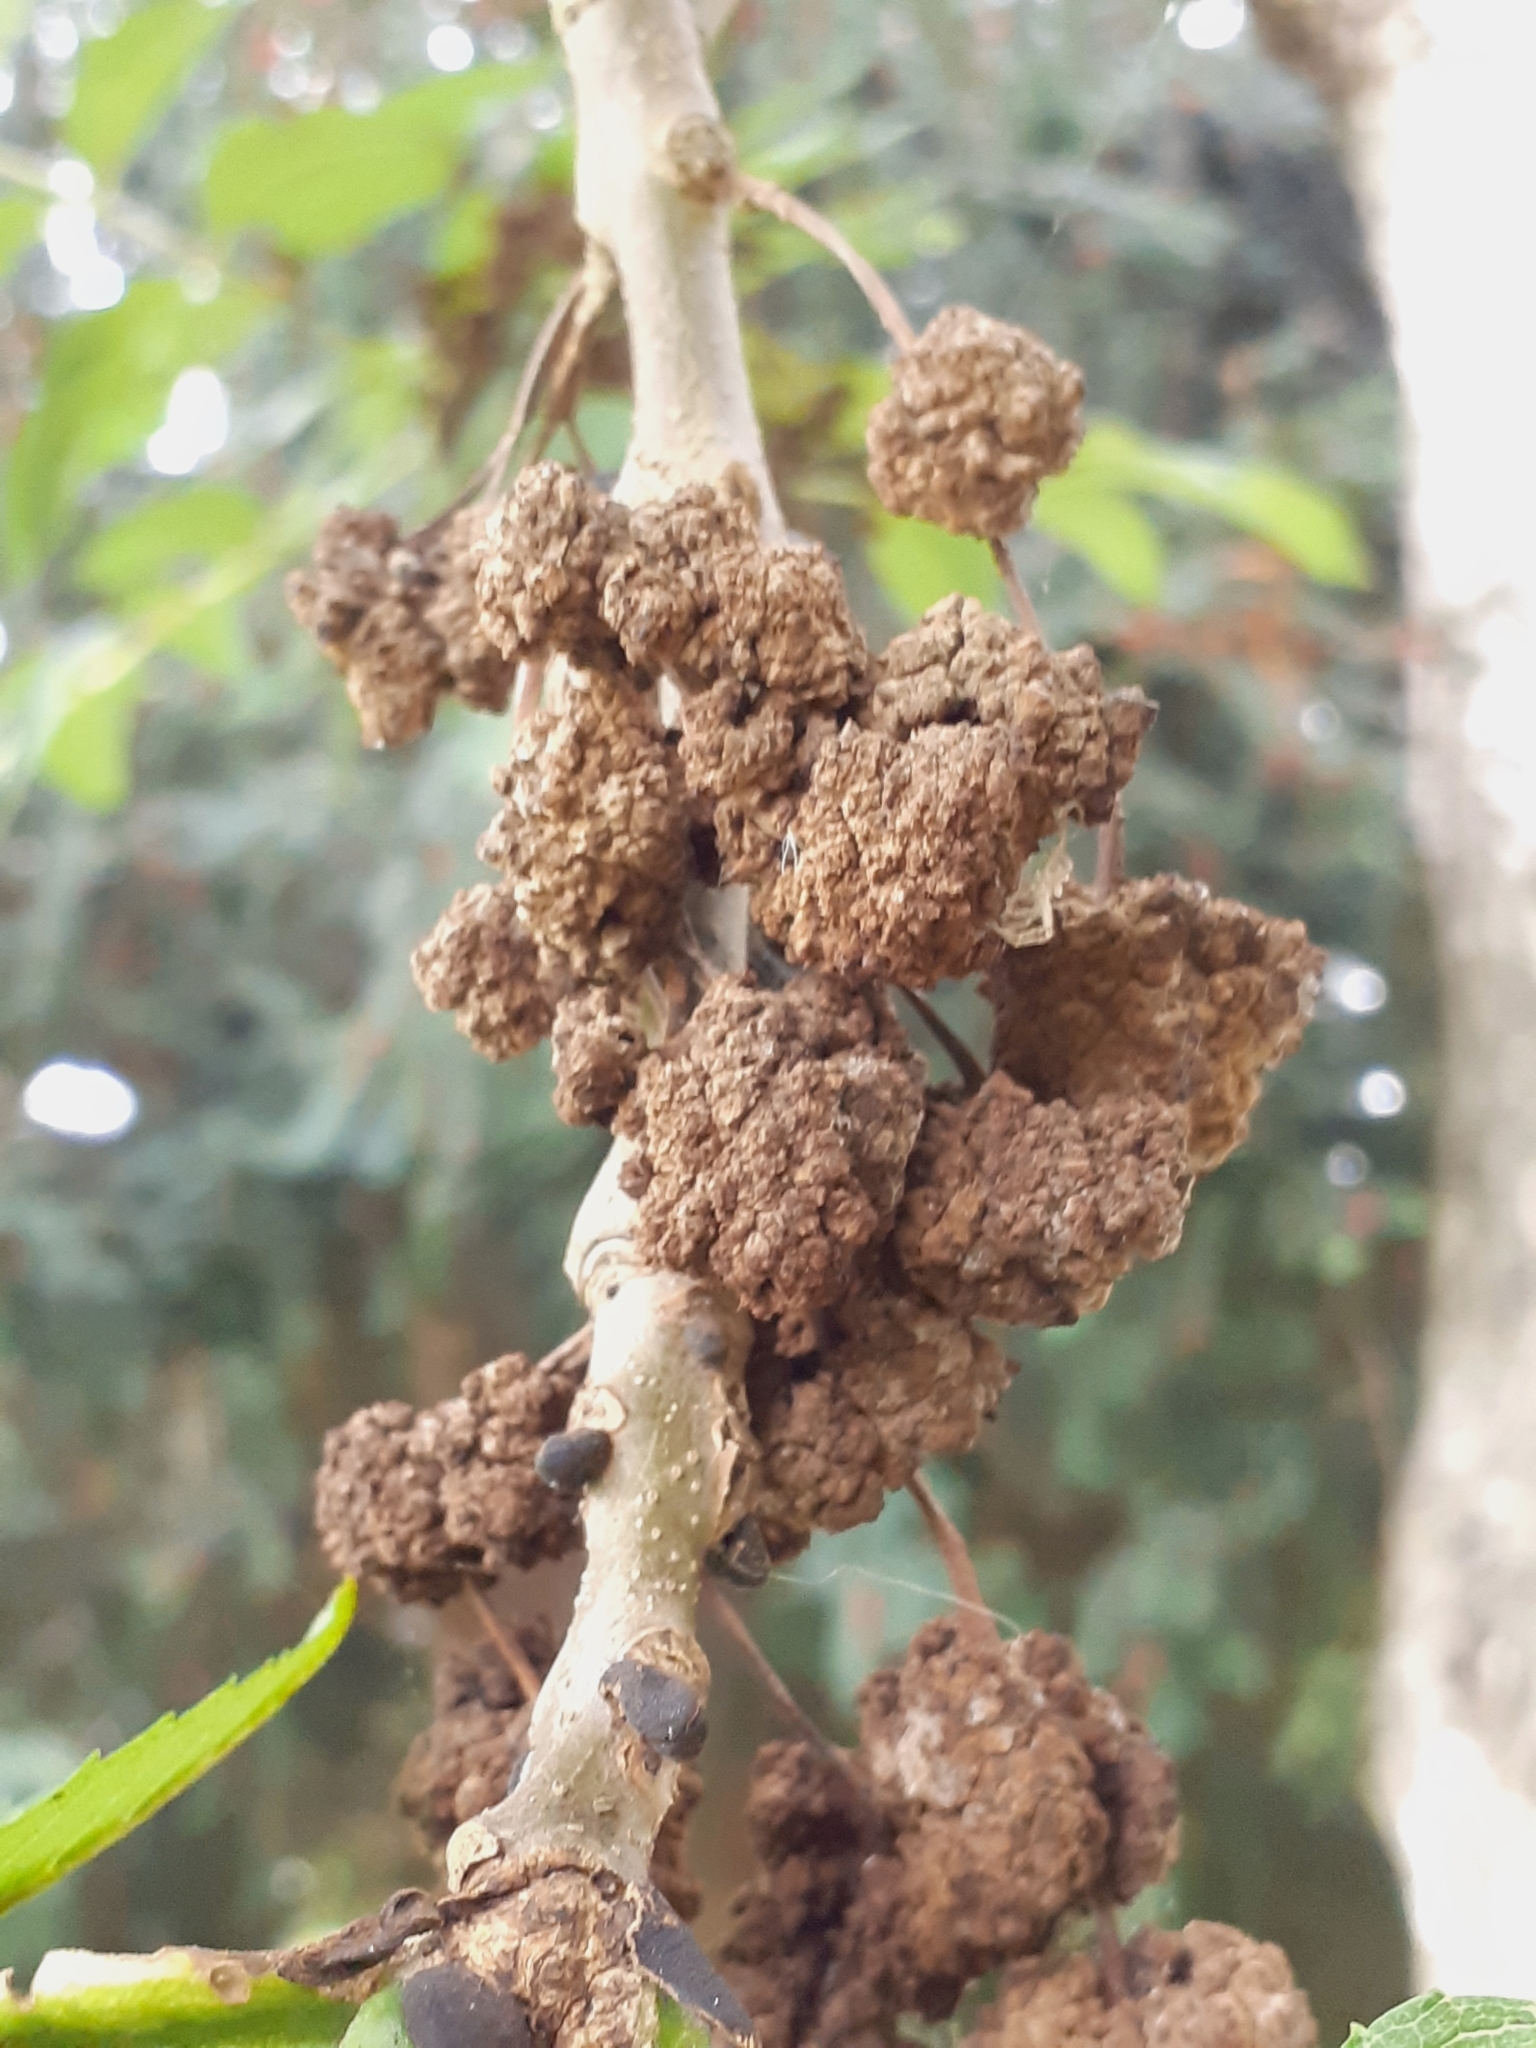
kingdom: Animalia
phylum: Arthropoda
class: Arachnida
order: Trombidiformes
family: Eriophyidae
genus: Aceria
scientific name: Aceria fraxinivora
